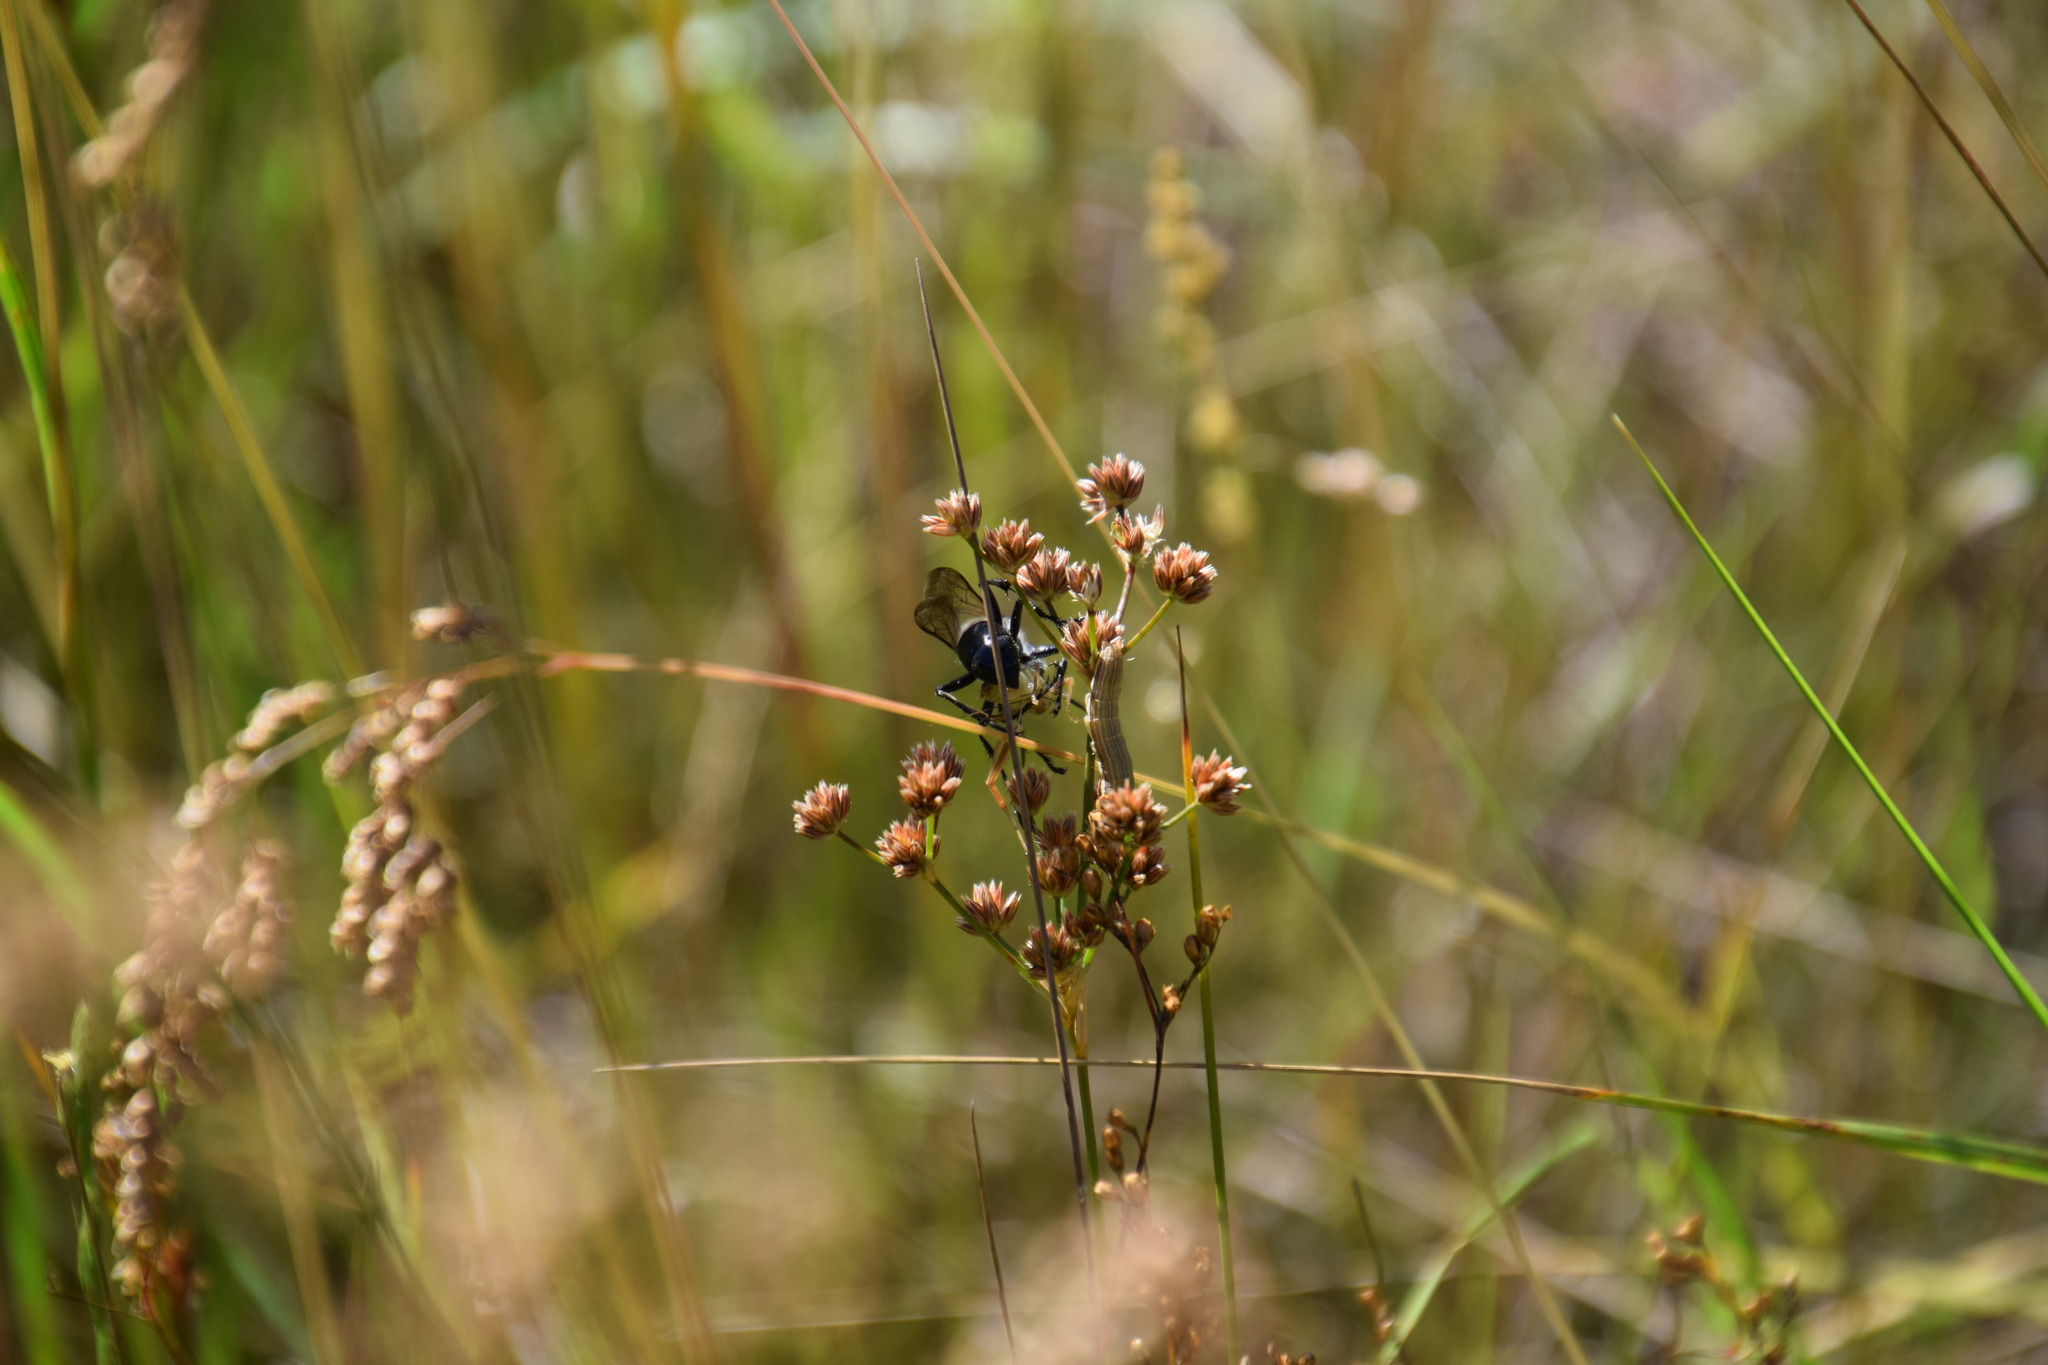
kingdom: Animalia
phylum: Arthropoda
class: Insecta
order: Hymenoptera
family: Sphecidae
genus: Sphex
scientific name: Sphex bilobatus
